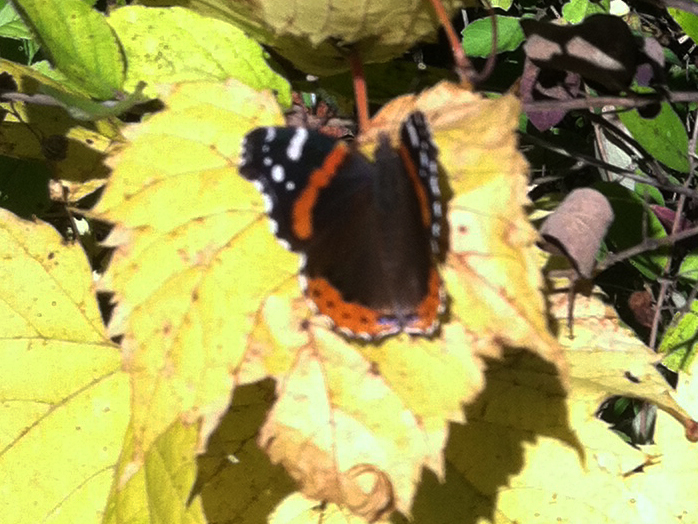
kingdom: Animalia
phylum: Arthropoda
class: Insecta
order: Lepidoptera
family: Nymphalidae
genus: Vanessa
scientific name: Vanessa atalanta
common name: Red admiral
